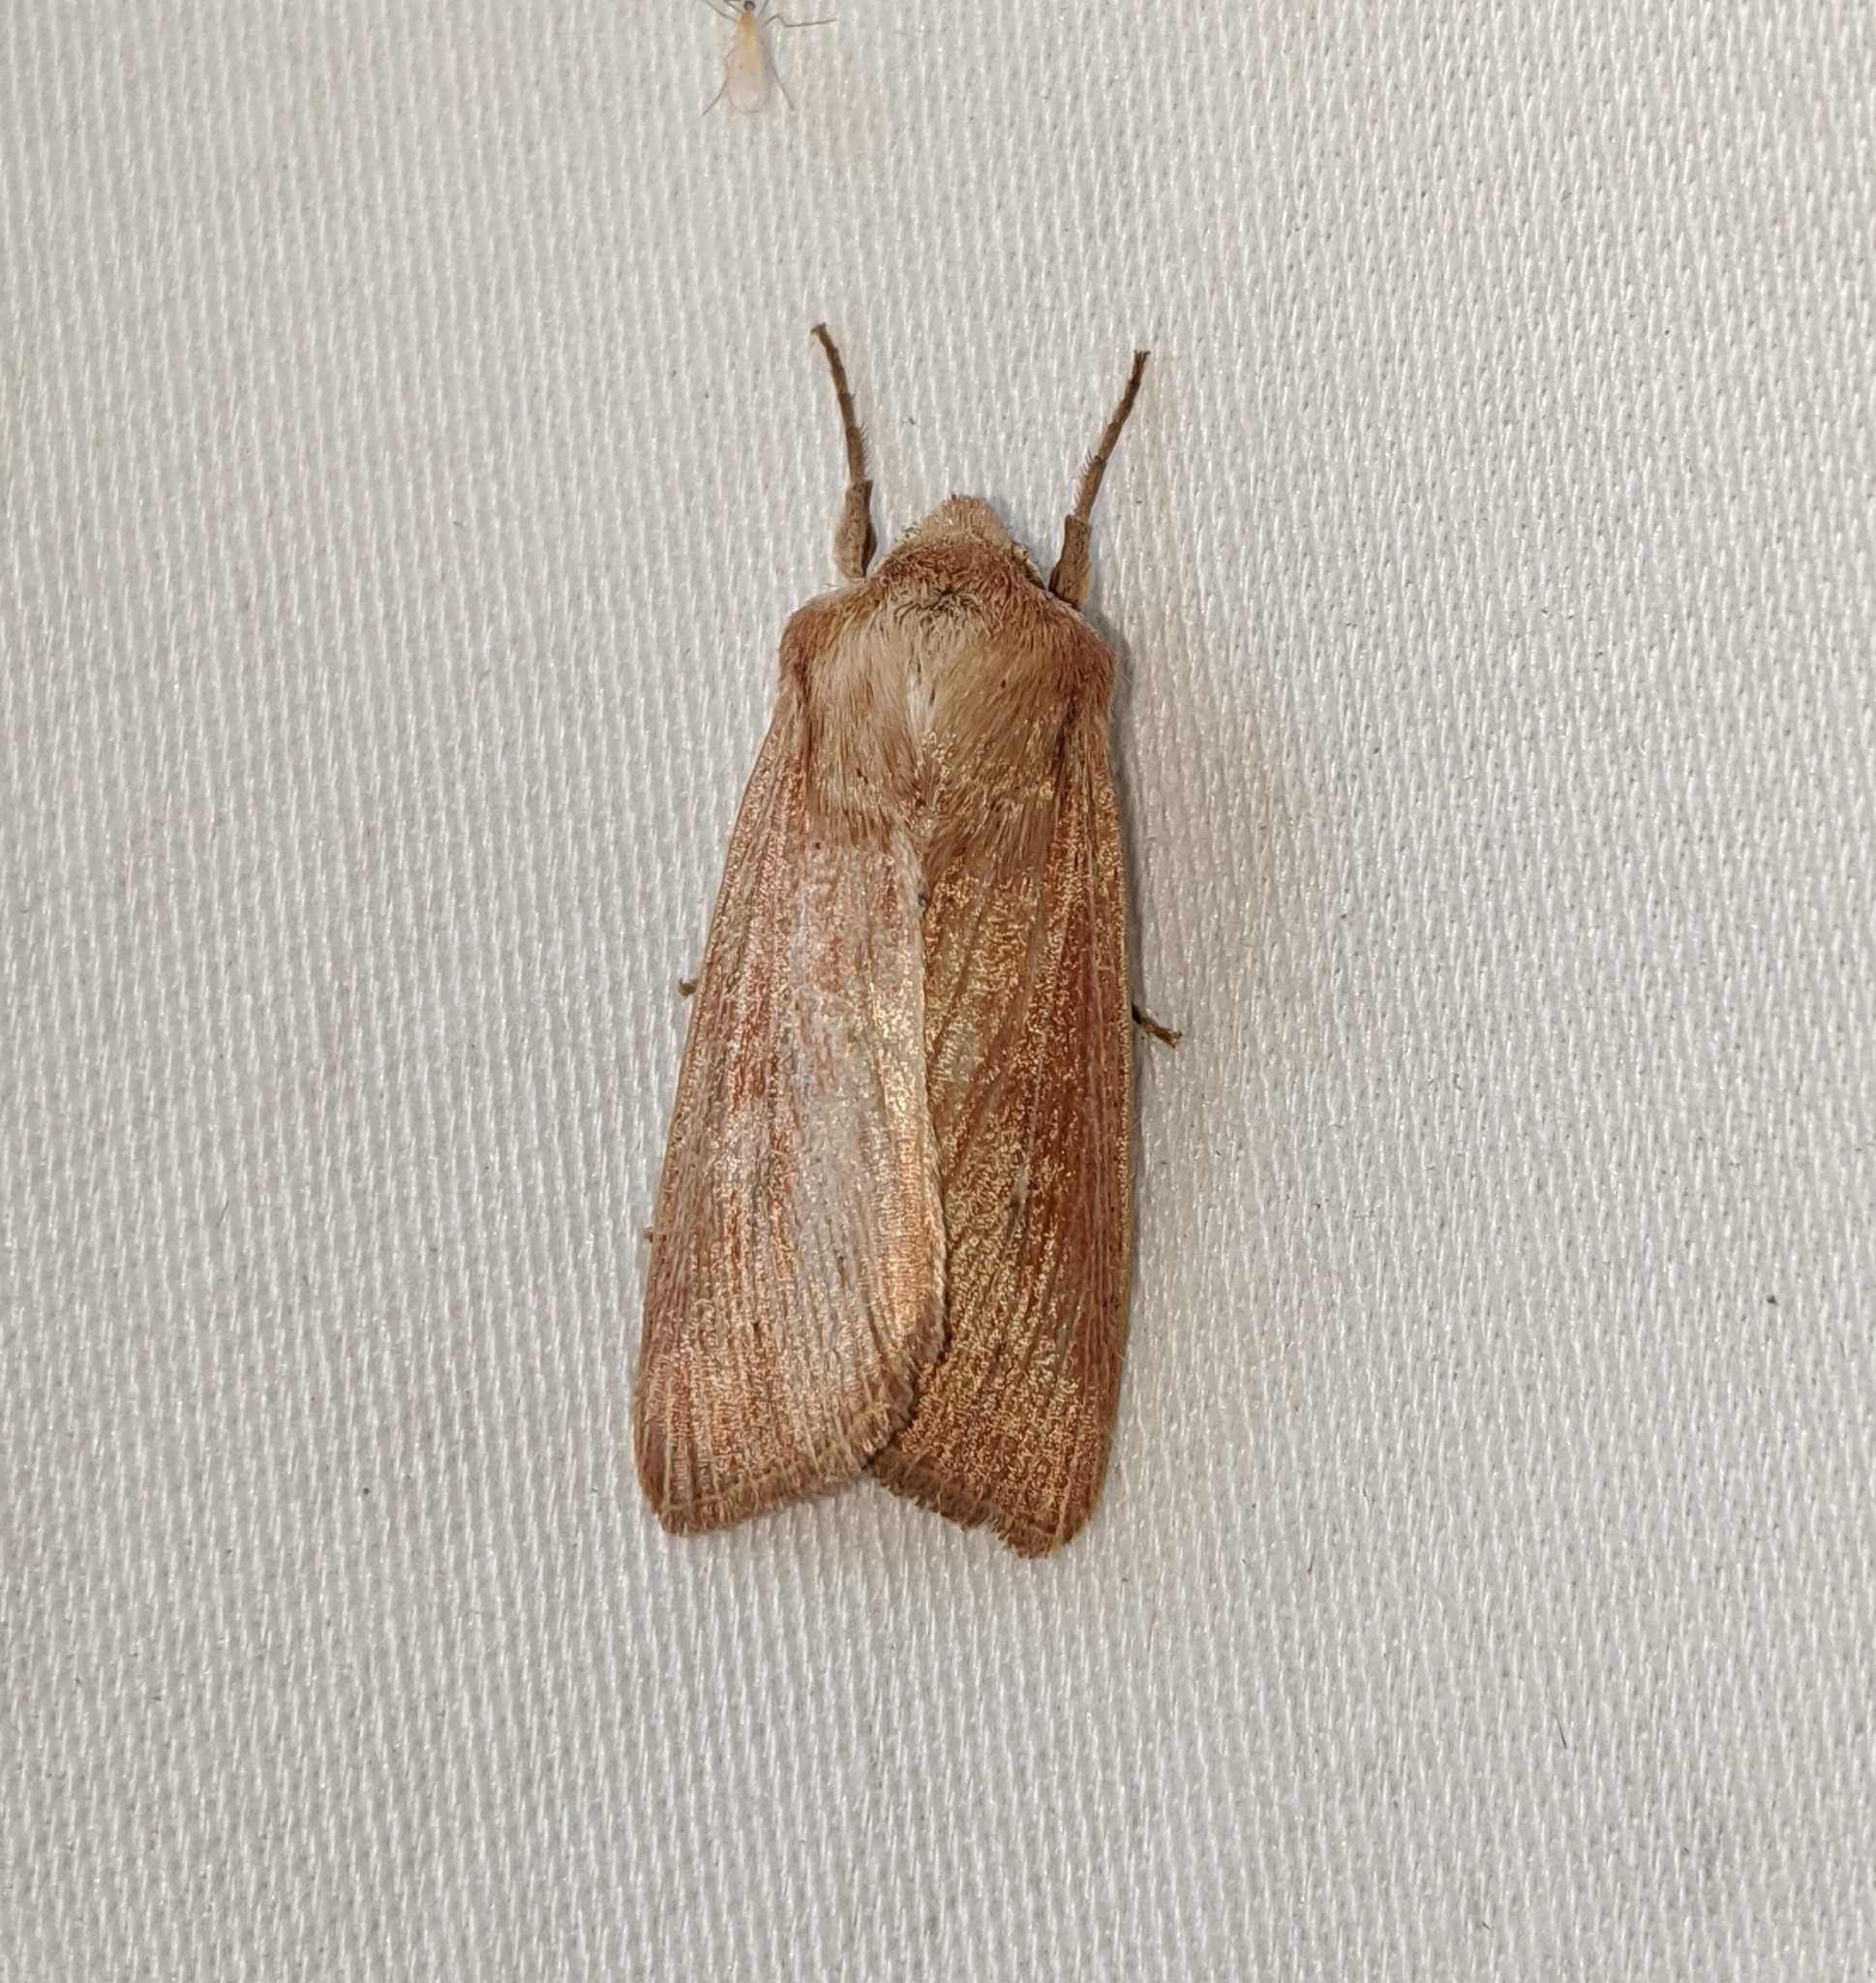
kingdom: Animalia
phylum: Arthropoda
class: Insecta
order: Lepidoptera
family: Noctuidae
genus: Mythimna
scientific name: Mythimna oxygala
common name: Lesser wainscot
